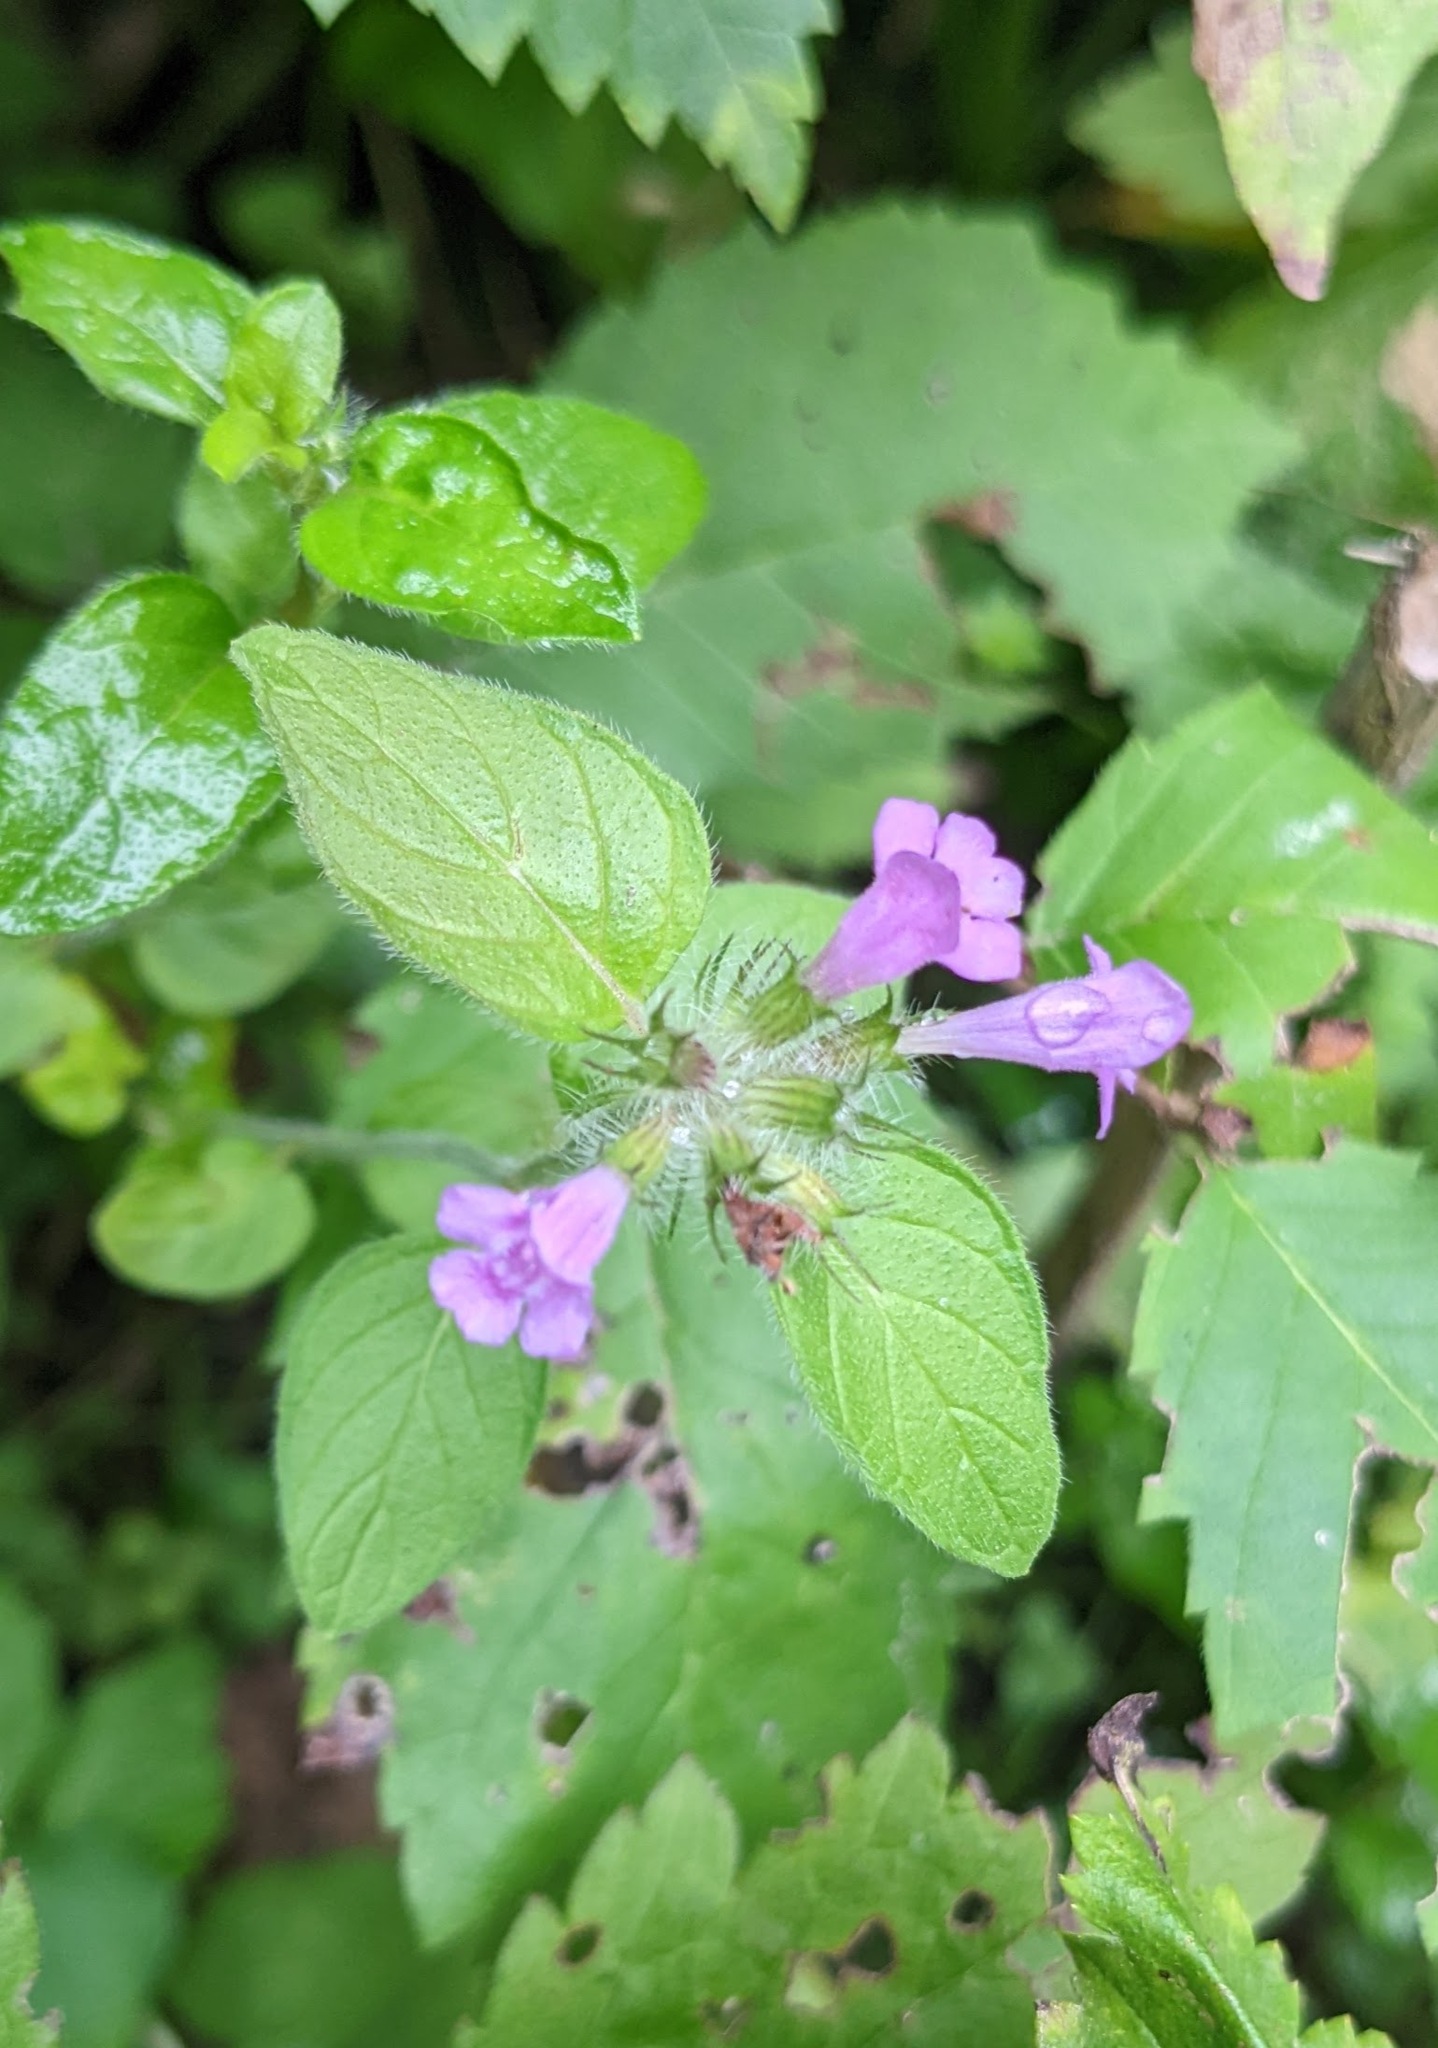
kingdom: Plantae
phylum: Tracheophyta
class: Magnoliopsida
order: Lamiales
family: Lamiaceae
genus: Clinopodium
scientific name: Clinopodium vulgare
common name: Wild basil
